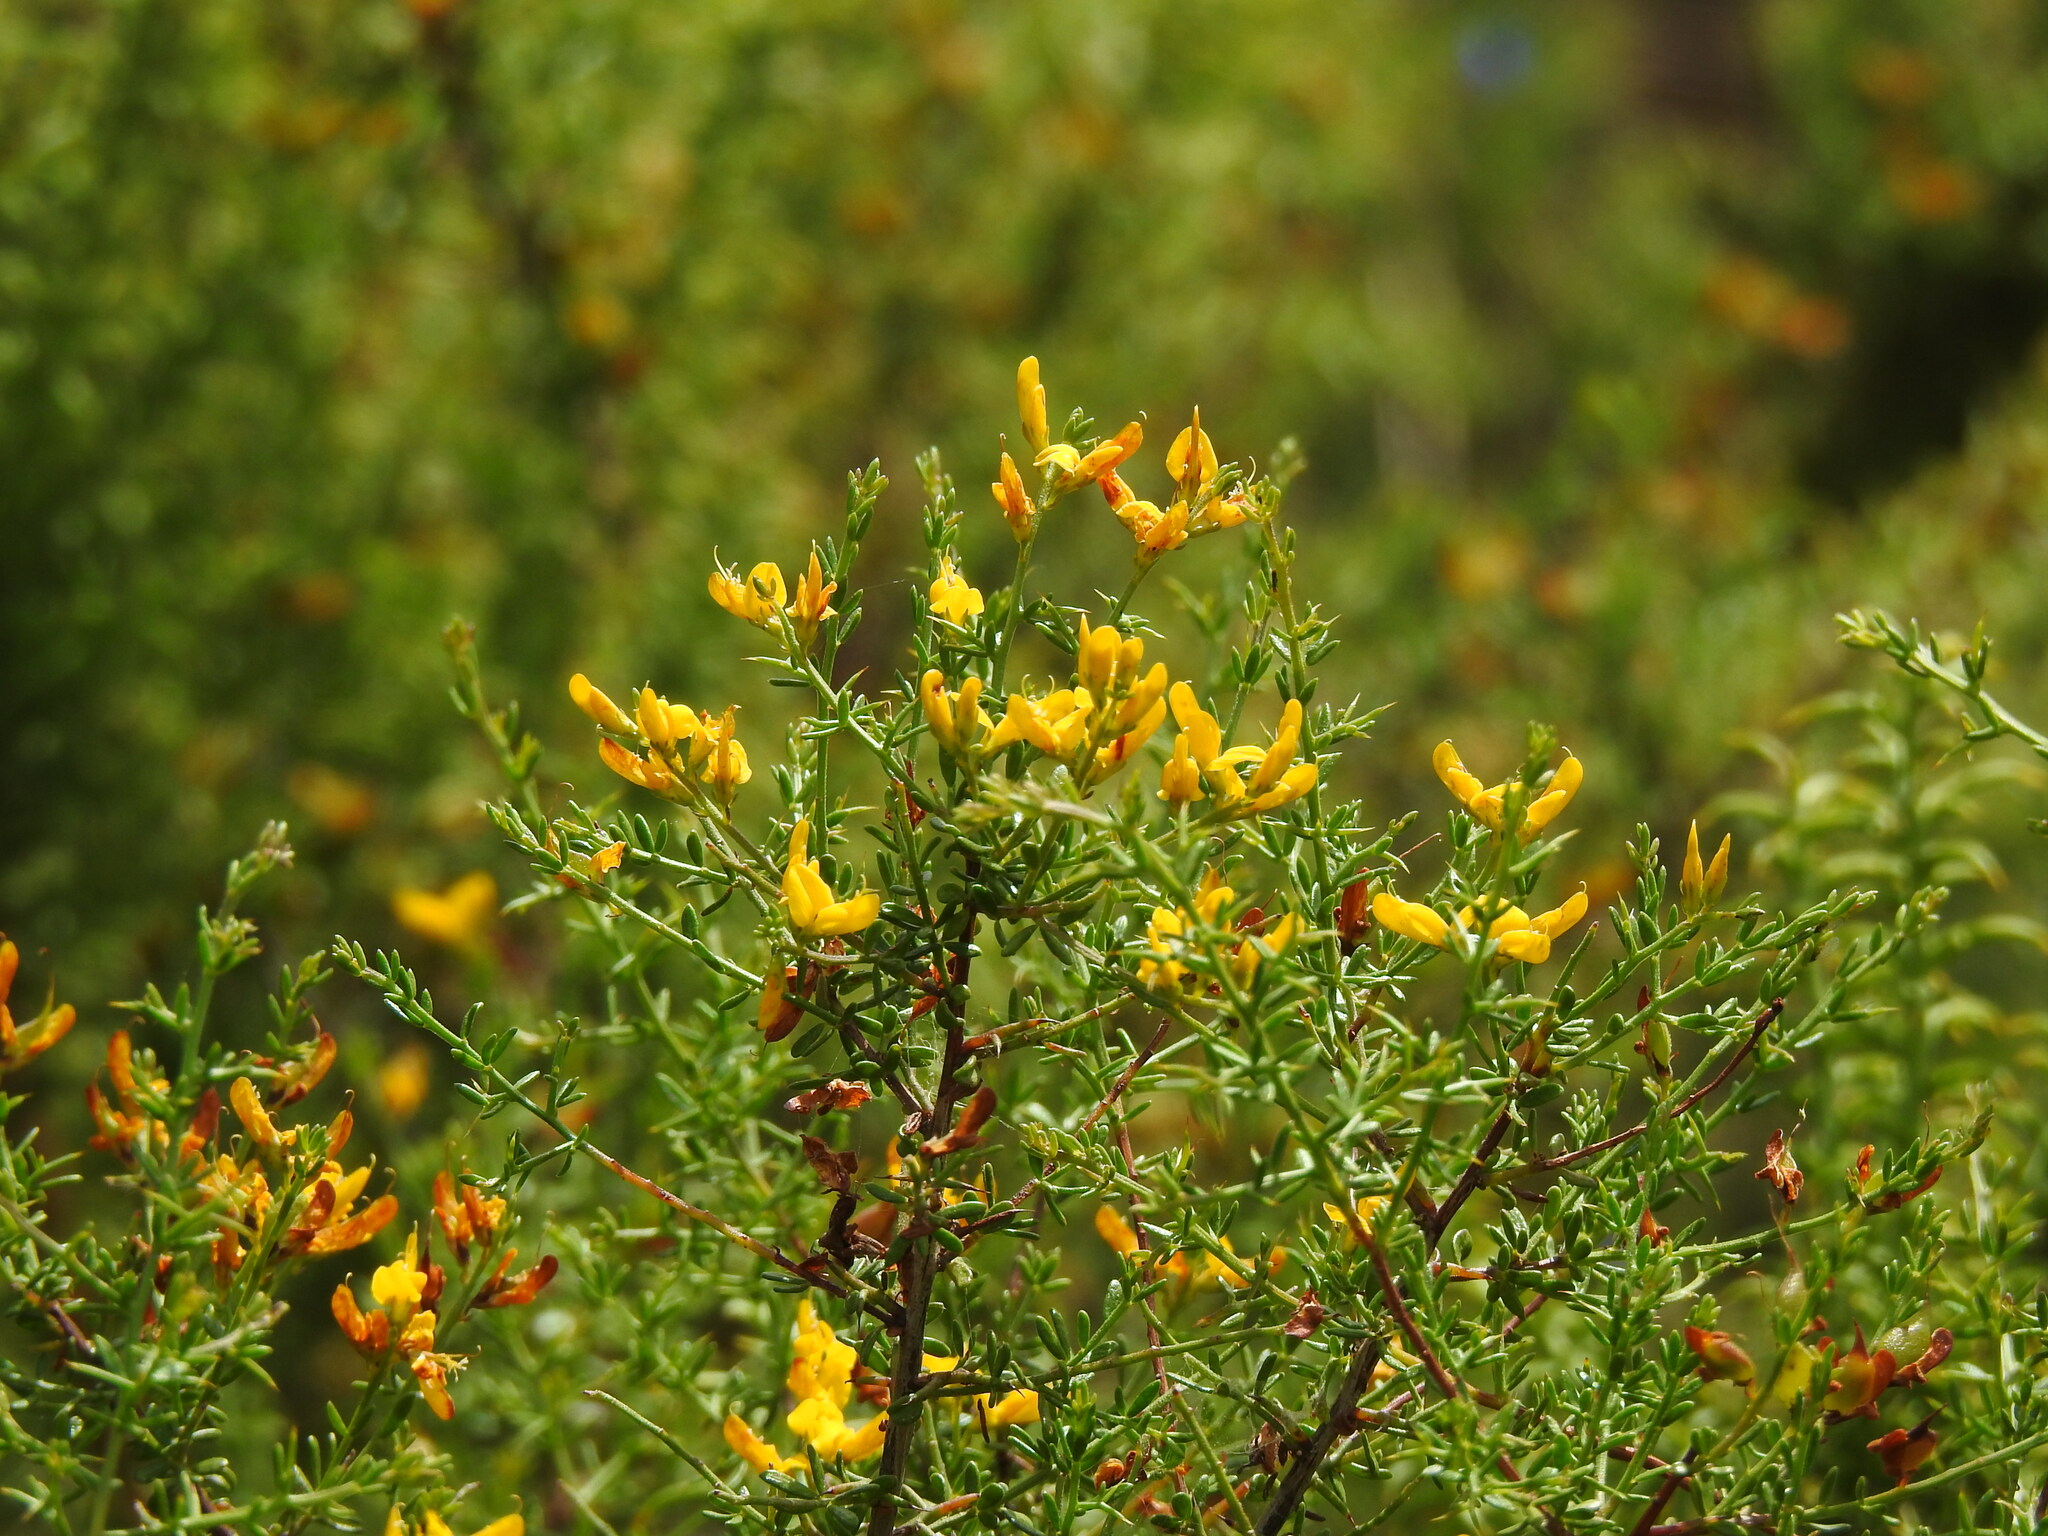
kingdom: Plantae
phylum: Tracheophyta
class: Magnoliopsida
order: Fabales
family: Fabaceae
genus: Genista
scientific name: Genista triacanthos
